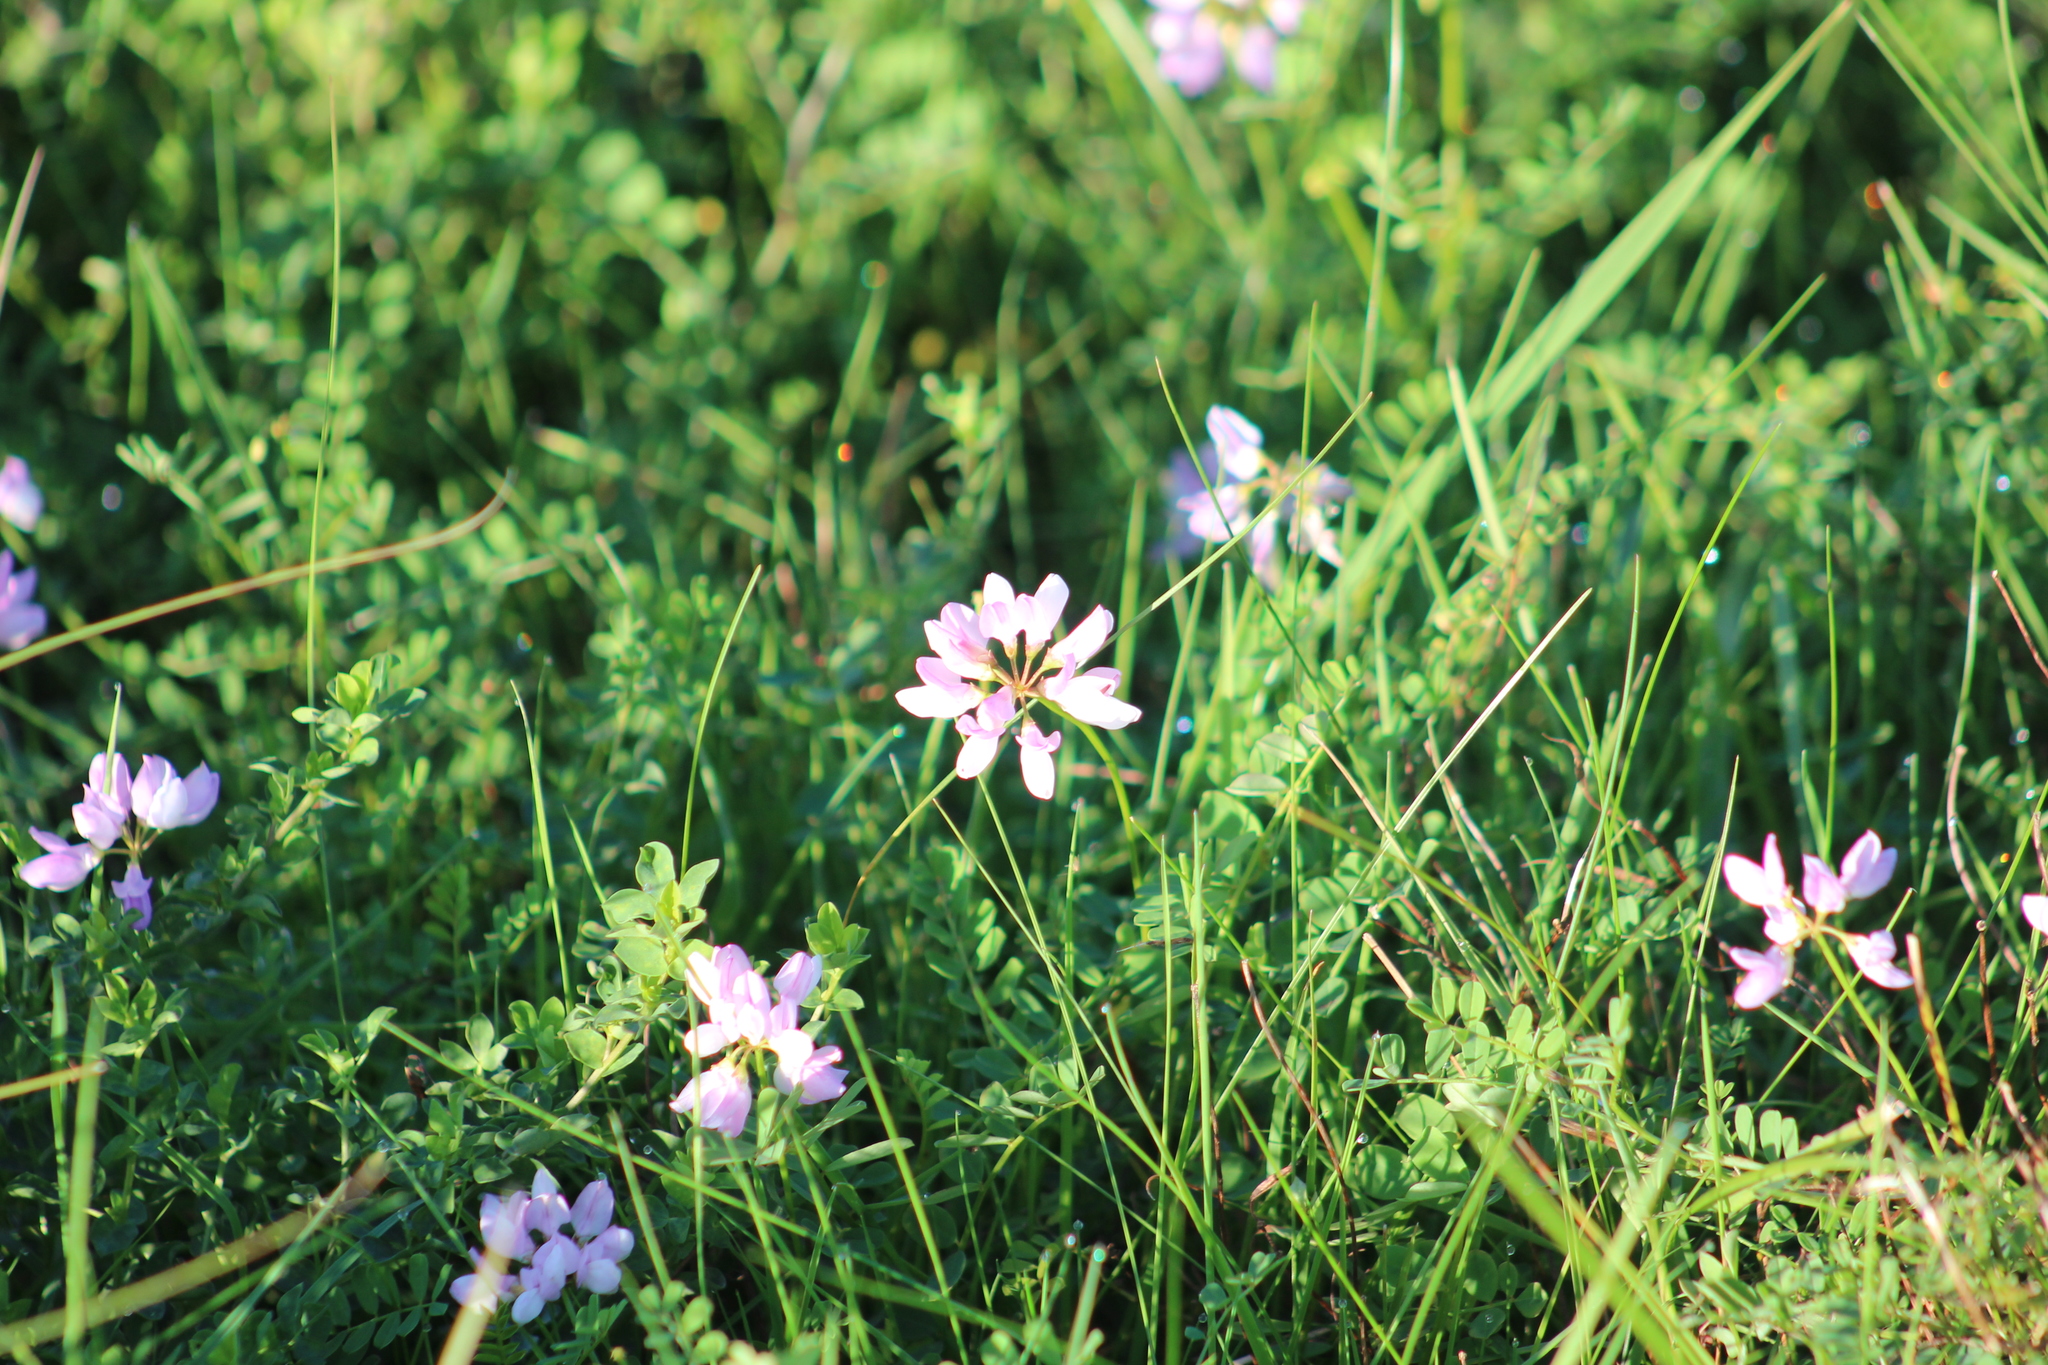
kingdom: Plantae
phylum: Tracheophyta
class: Magnoliopsida
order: Fabales
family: Fabaceae
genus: Coronilla
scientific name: Coronilla varia
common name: Crownvetch
